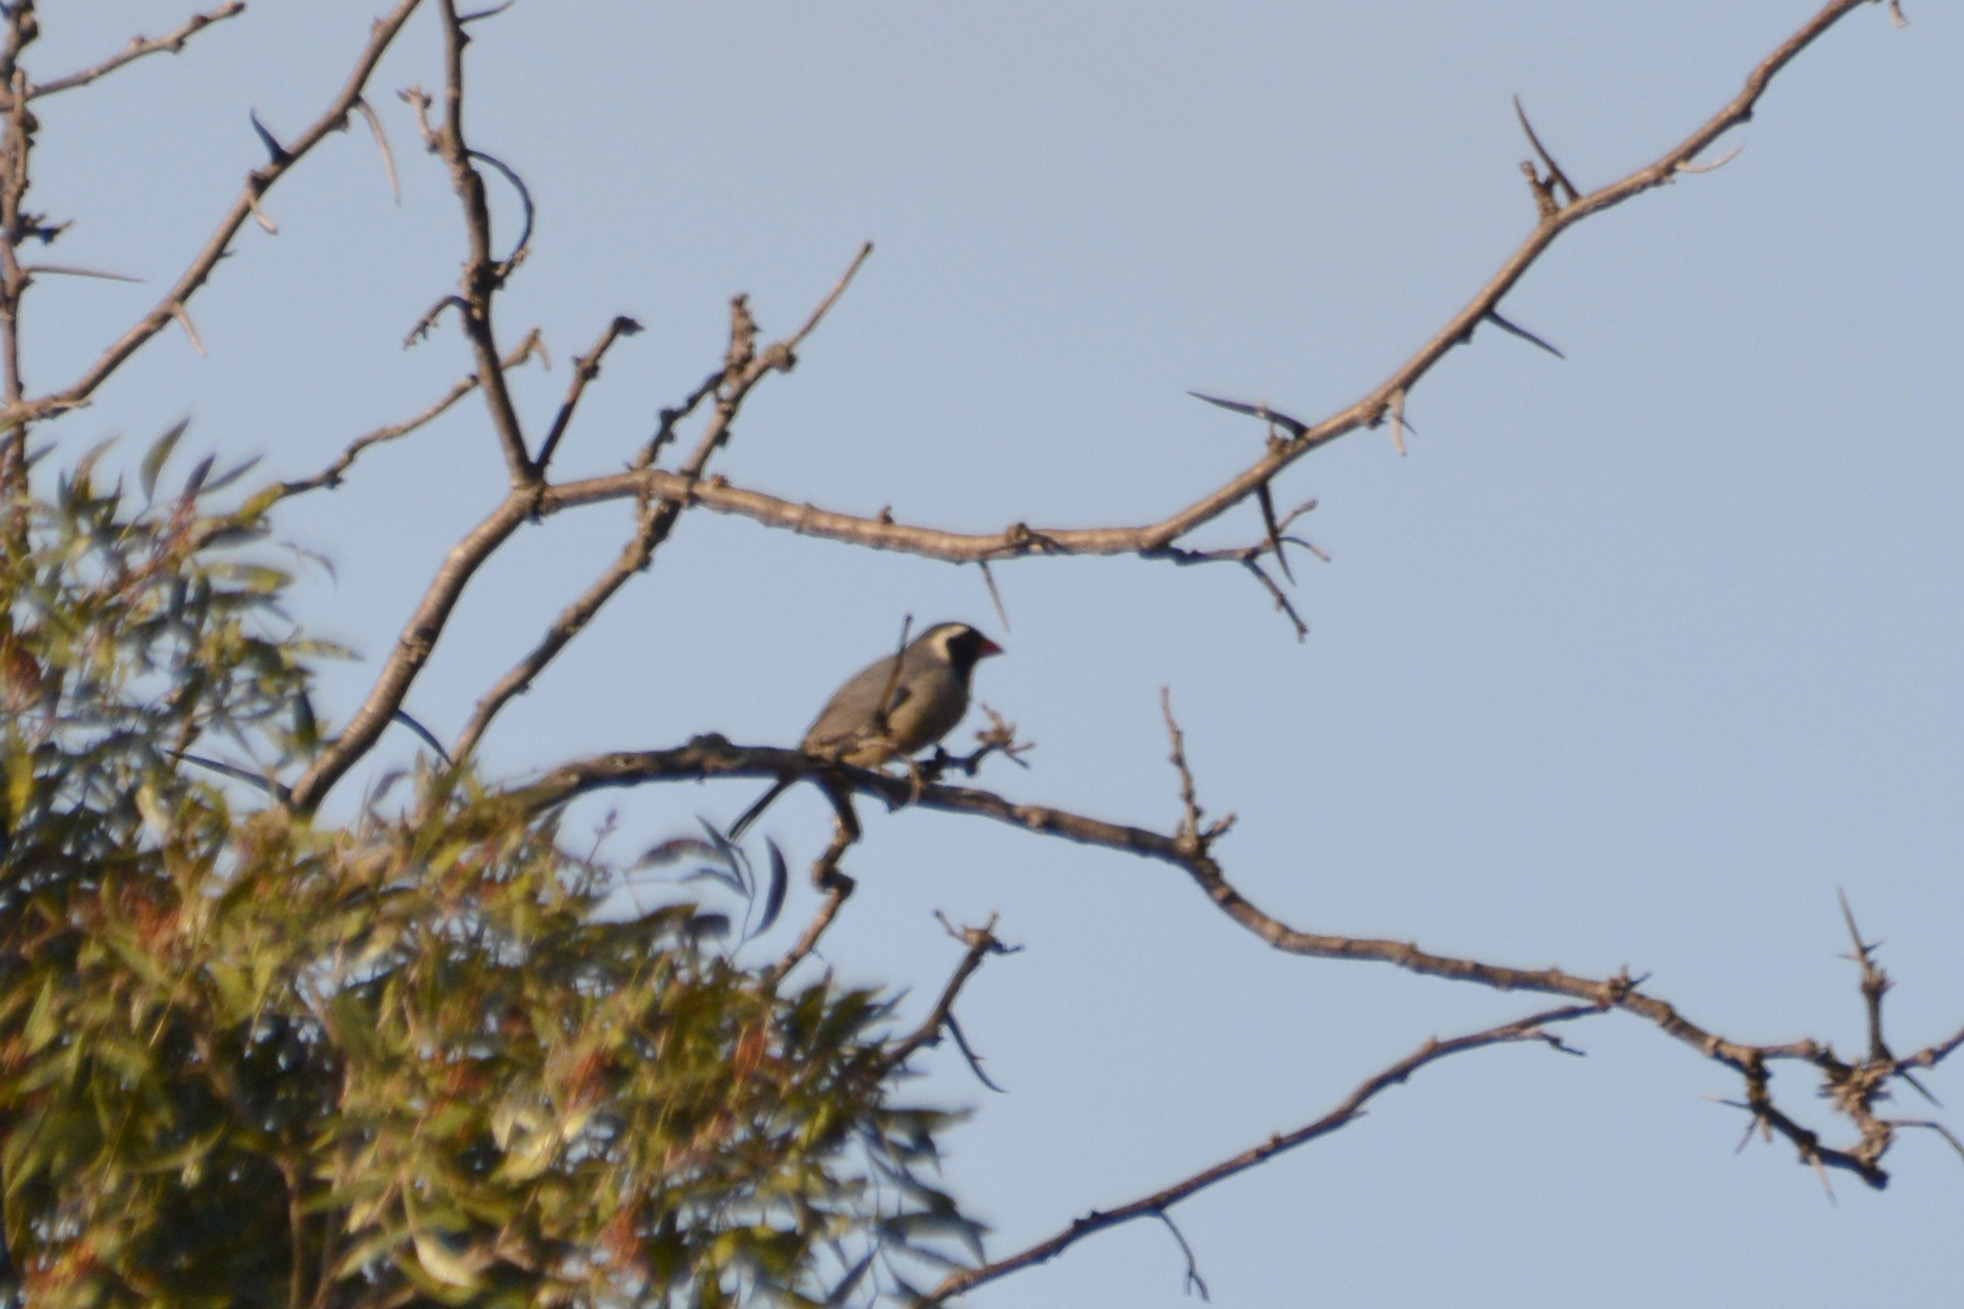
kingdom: Animalia
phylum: Chordata
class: Aves
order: Passeriformes
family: Thraupidae
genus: Saltator
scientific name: Saltator aurantiirostris
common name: Golden-billed saltator
